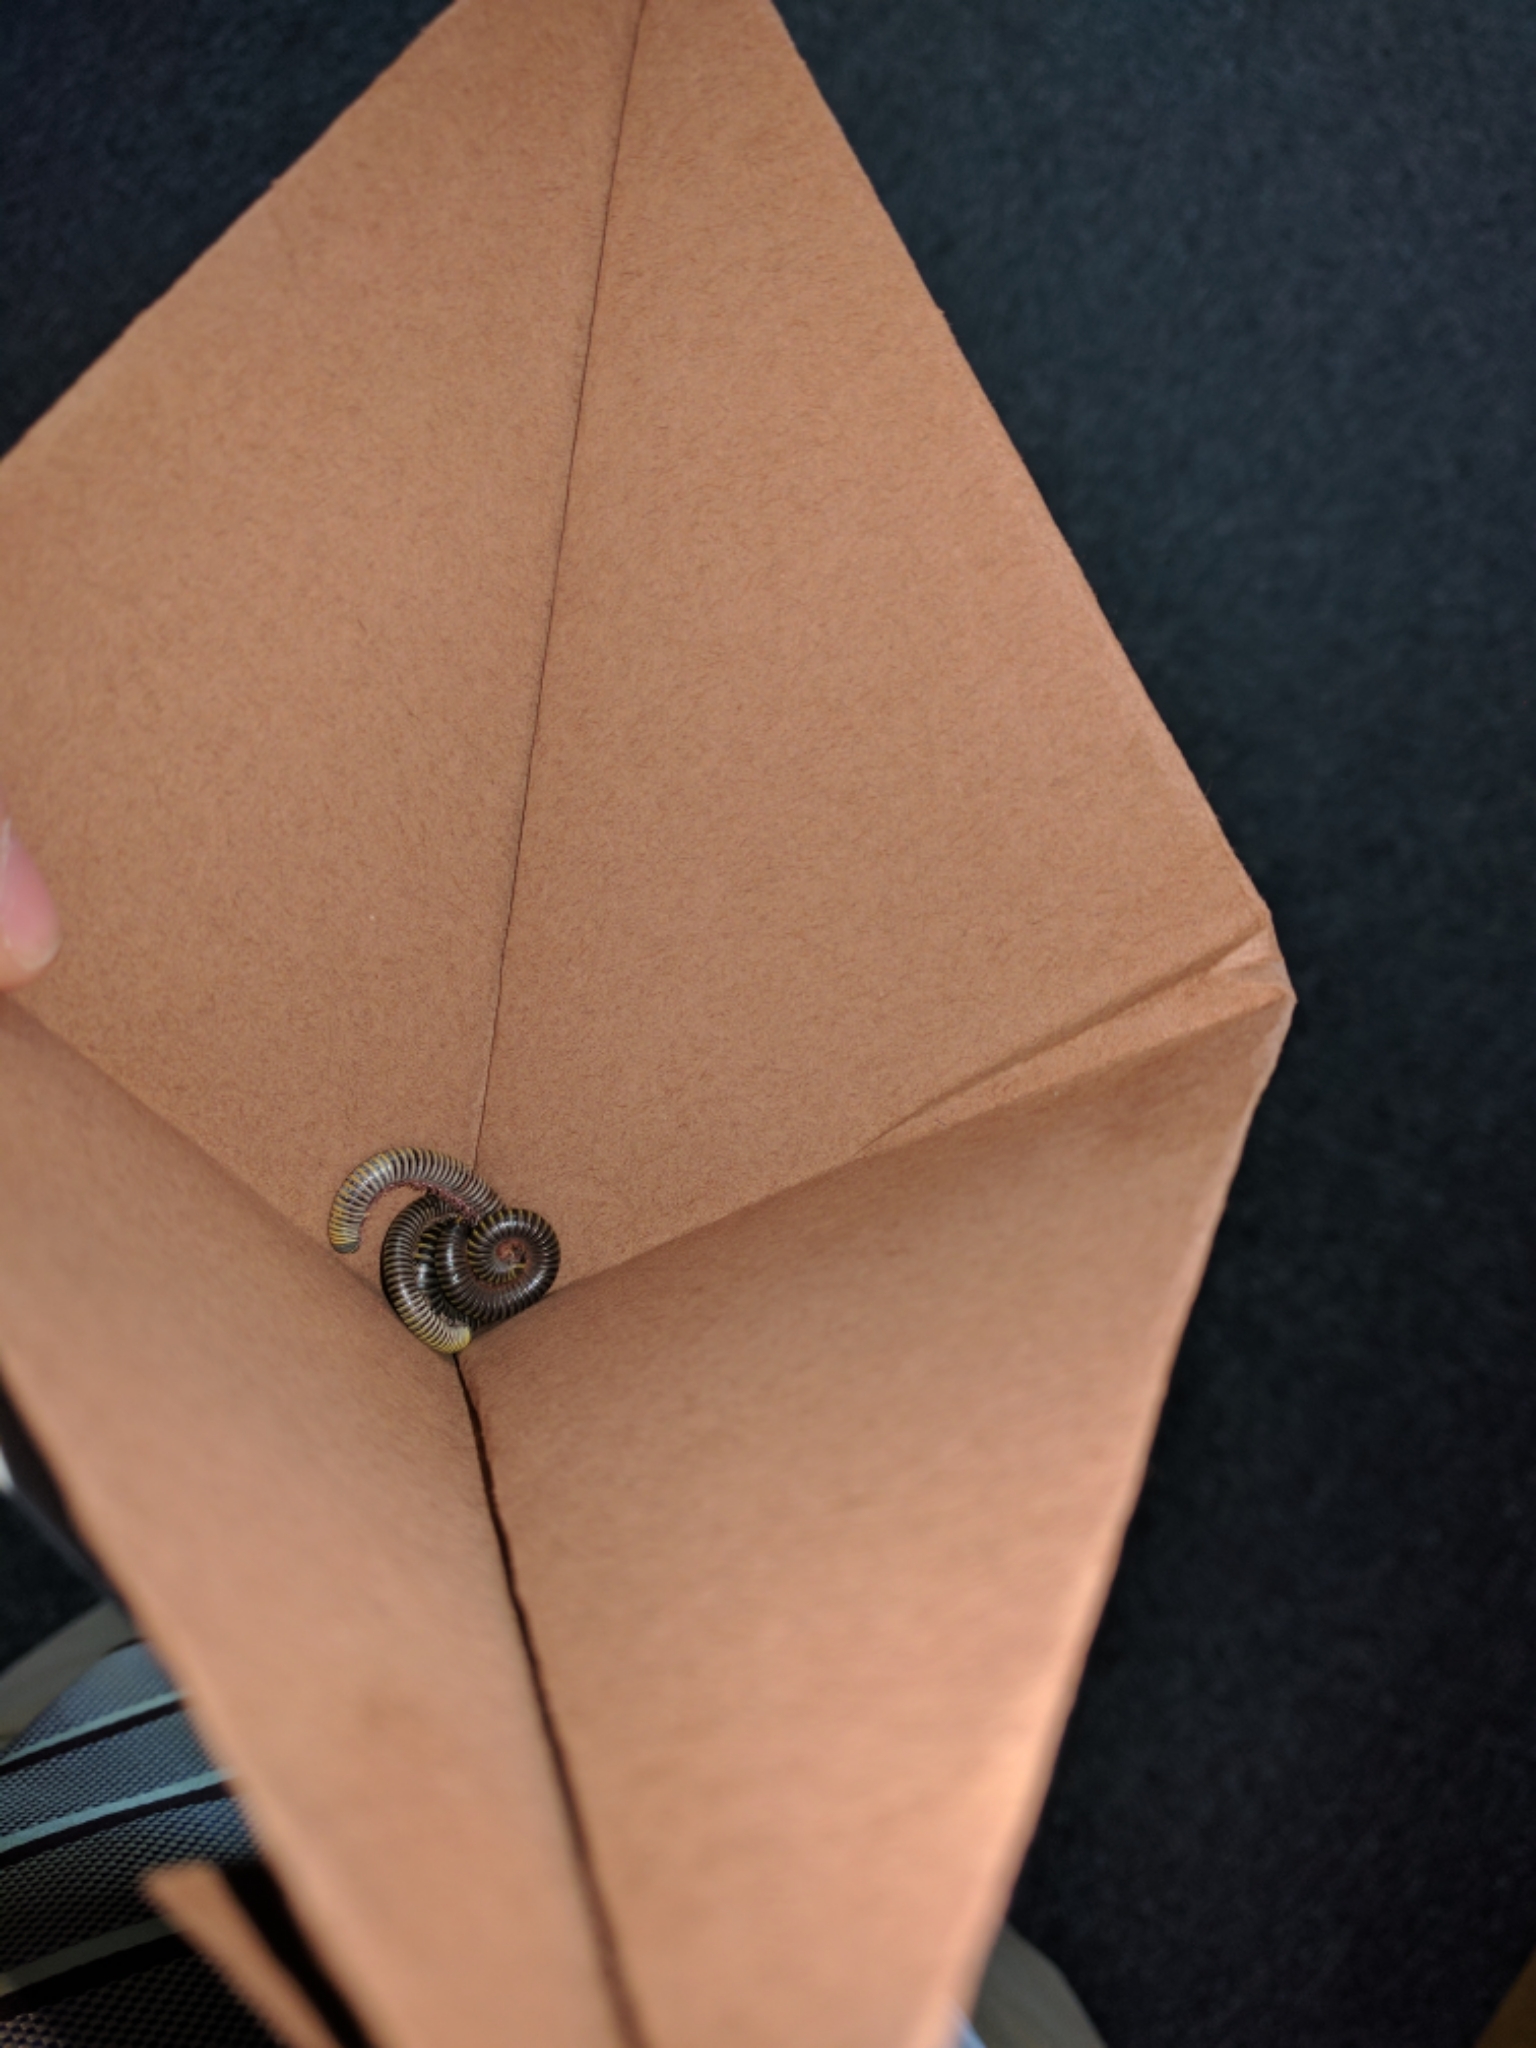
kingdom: Animalia
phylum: Arthropoda
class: Diplopoda
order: Spirobolida
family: Rhinocricidae
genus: Anadenobolus
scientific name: Anadenobolus monilicornis
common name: Caribbean millipede
